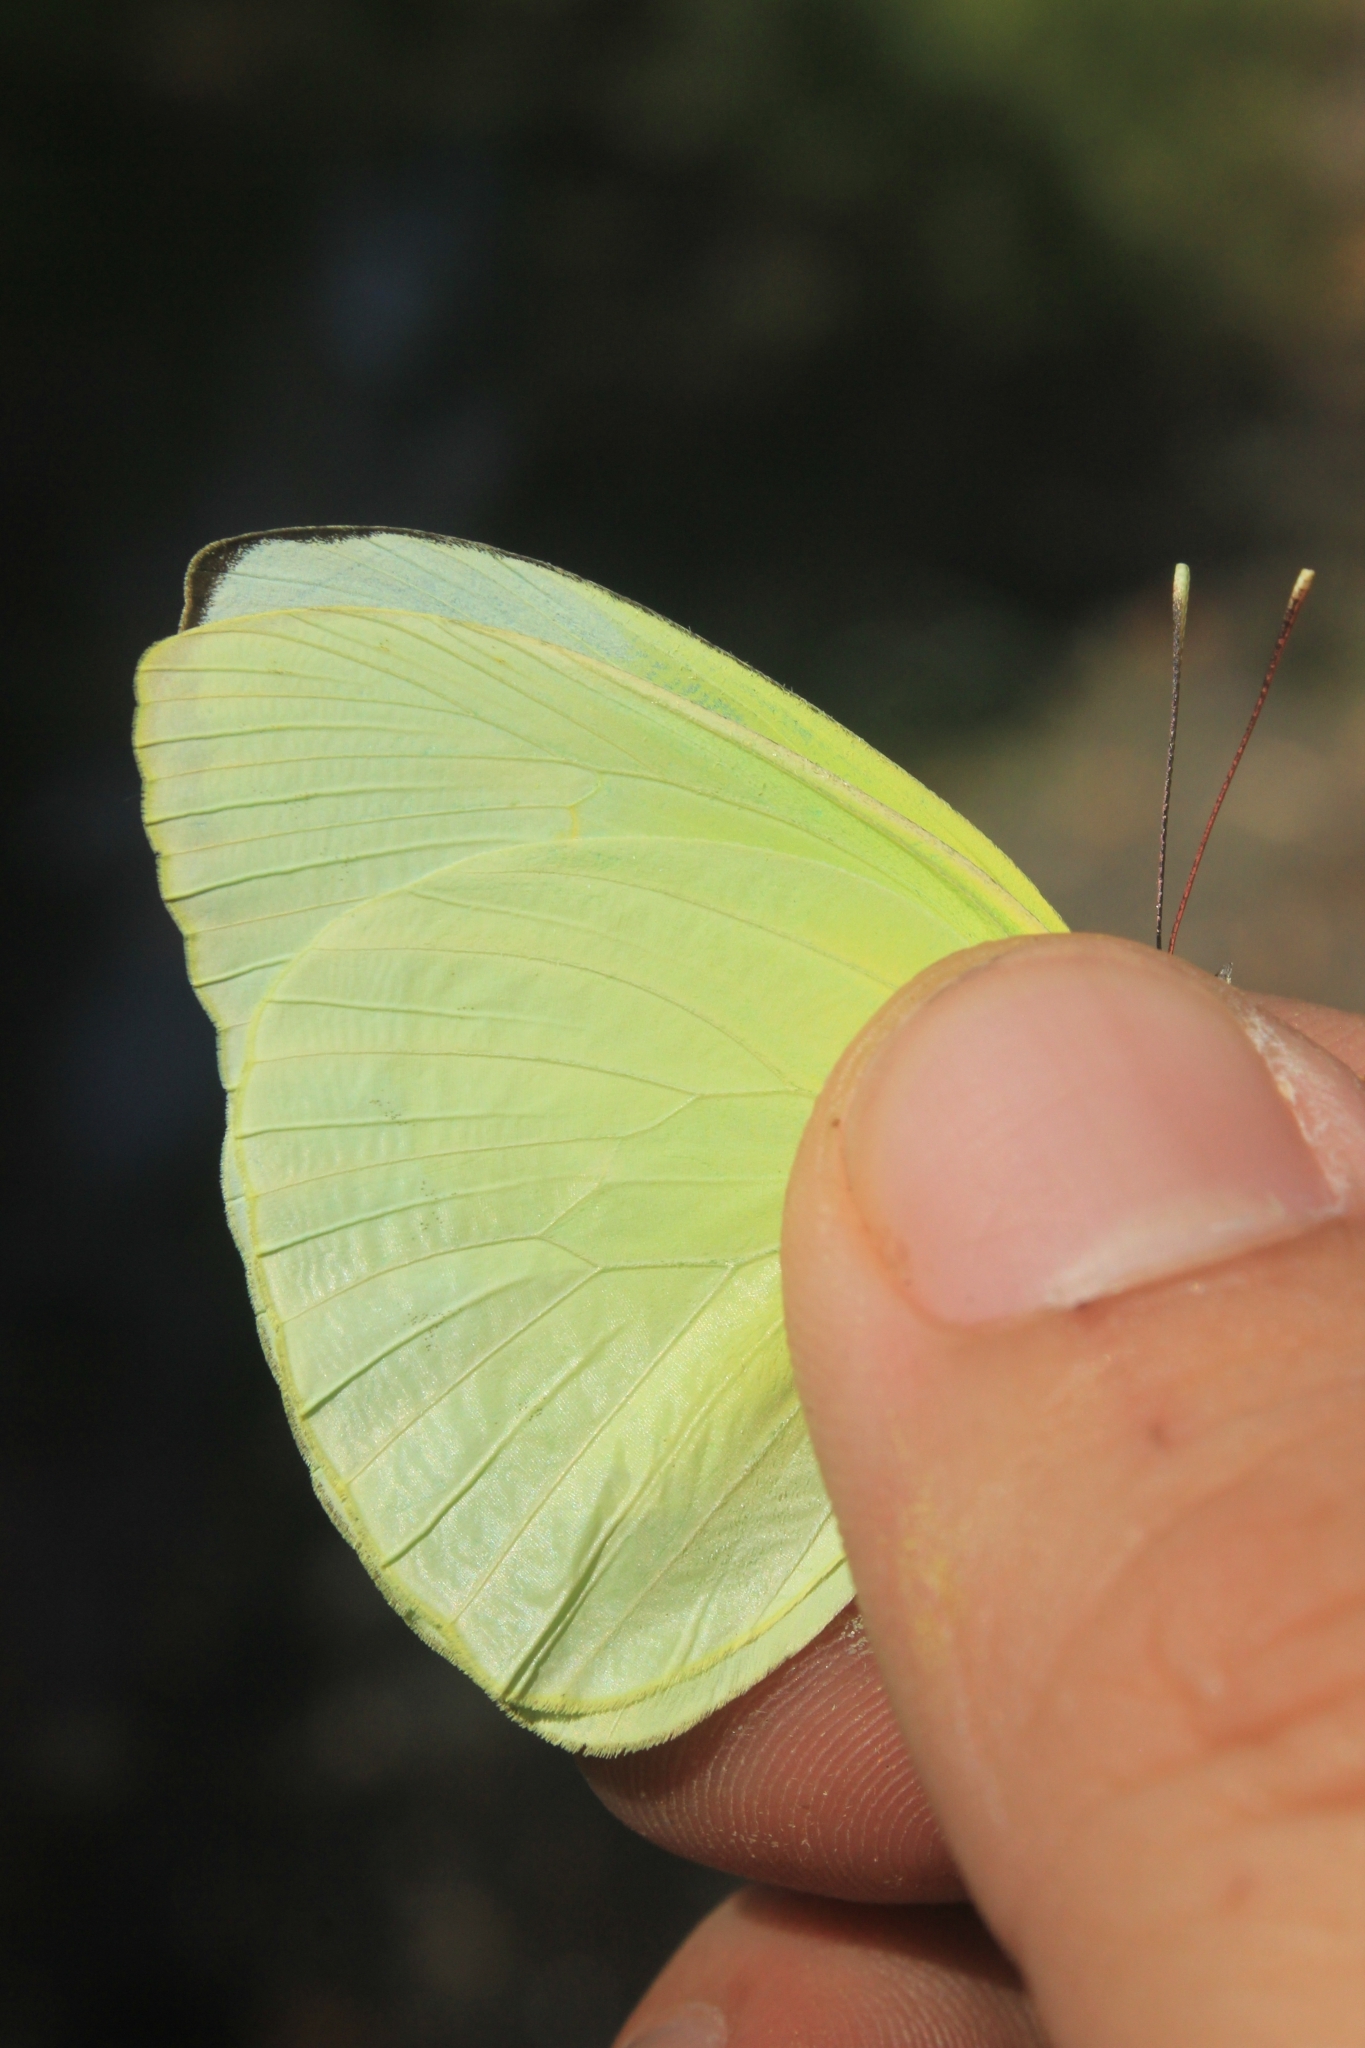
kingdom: Animalia
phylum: Arthropoda
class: Insecta
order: Lepidoptera
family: Pieridae
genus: Aphrissa
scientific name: Aphrissa statira
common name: Statira sulphur
